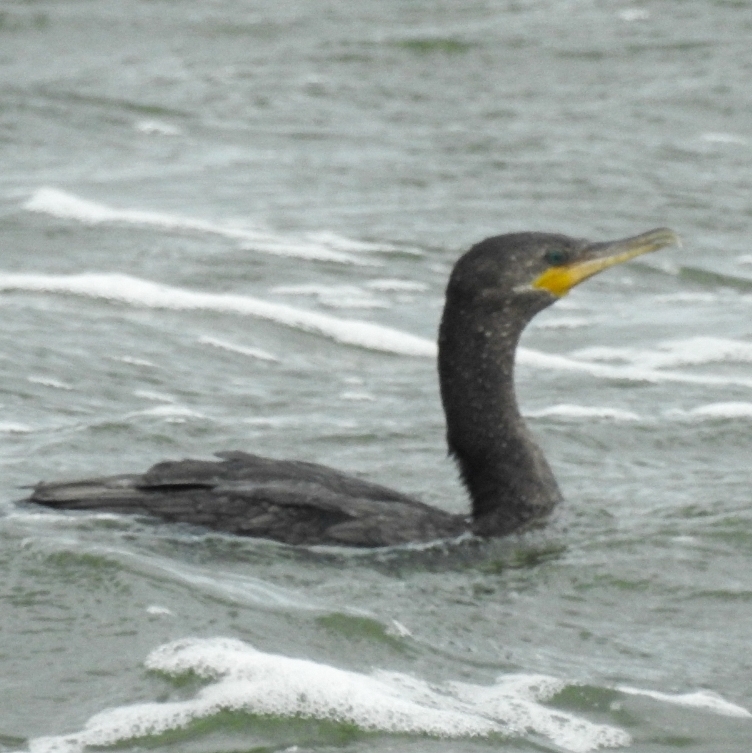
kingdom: Animalia
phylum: Chordata
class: Aves
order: Suliformes
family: Phalacrocoracidae
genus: Phalacrocorax
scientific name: Phalacrocorax brasilianus
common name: Neotropic cormorant
